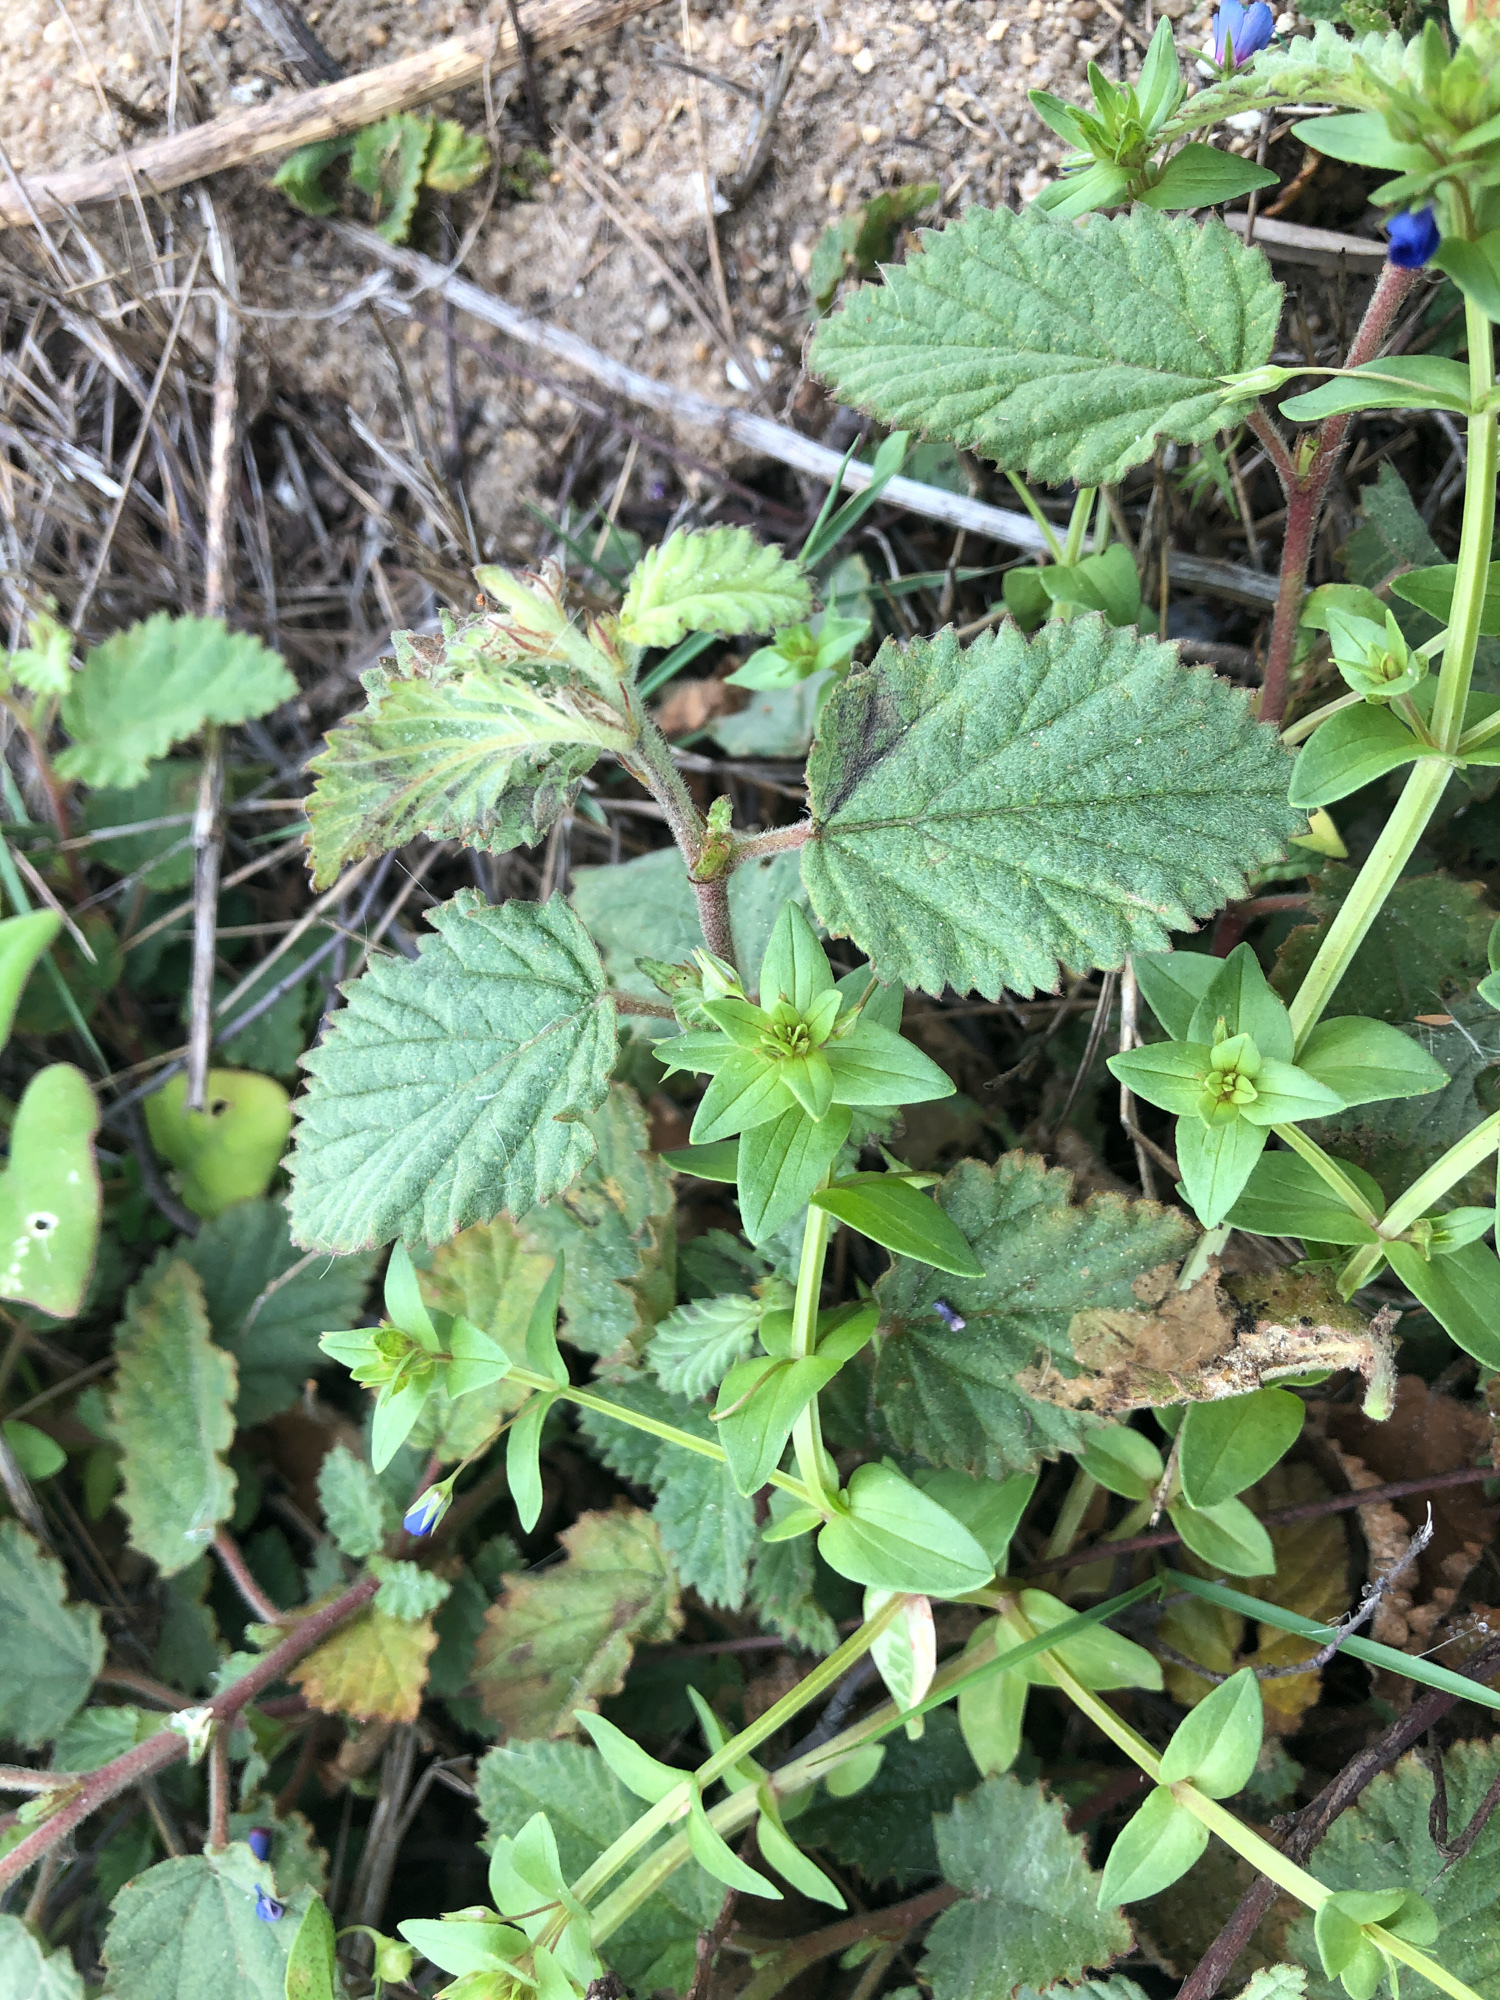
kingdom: Plantae
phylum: Tracheophyta
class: Magnoliopsida
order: Malvales
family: Malvaceae
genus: Waltheria
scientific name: Waltheria indica
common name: Leather-coat
